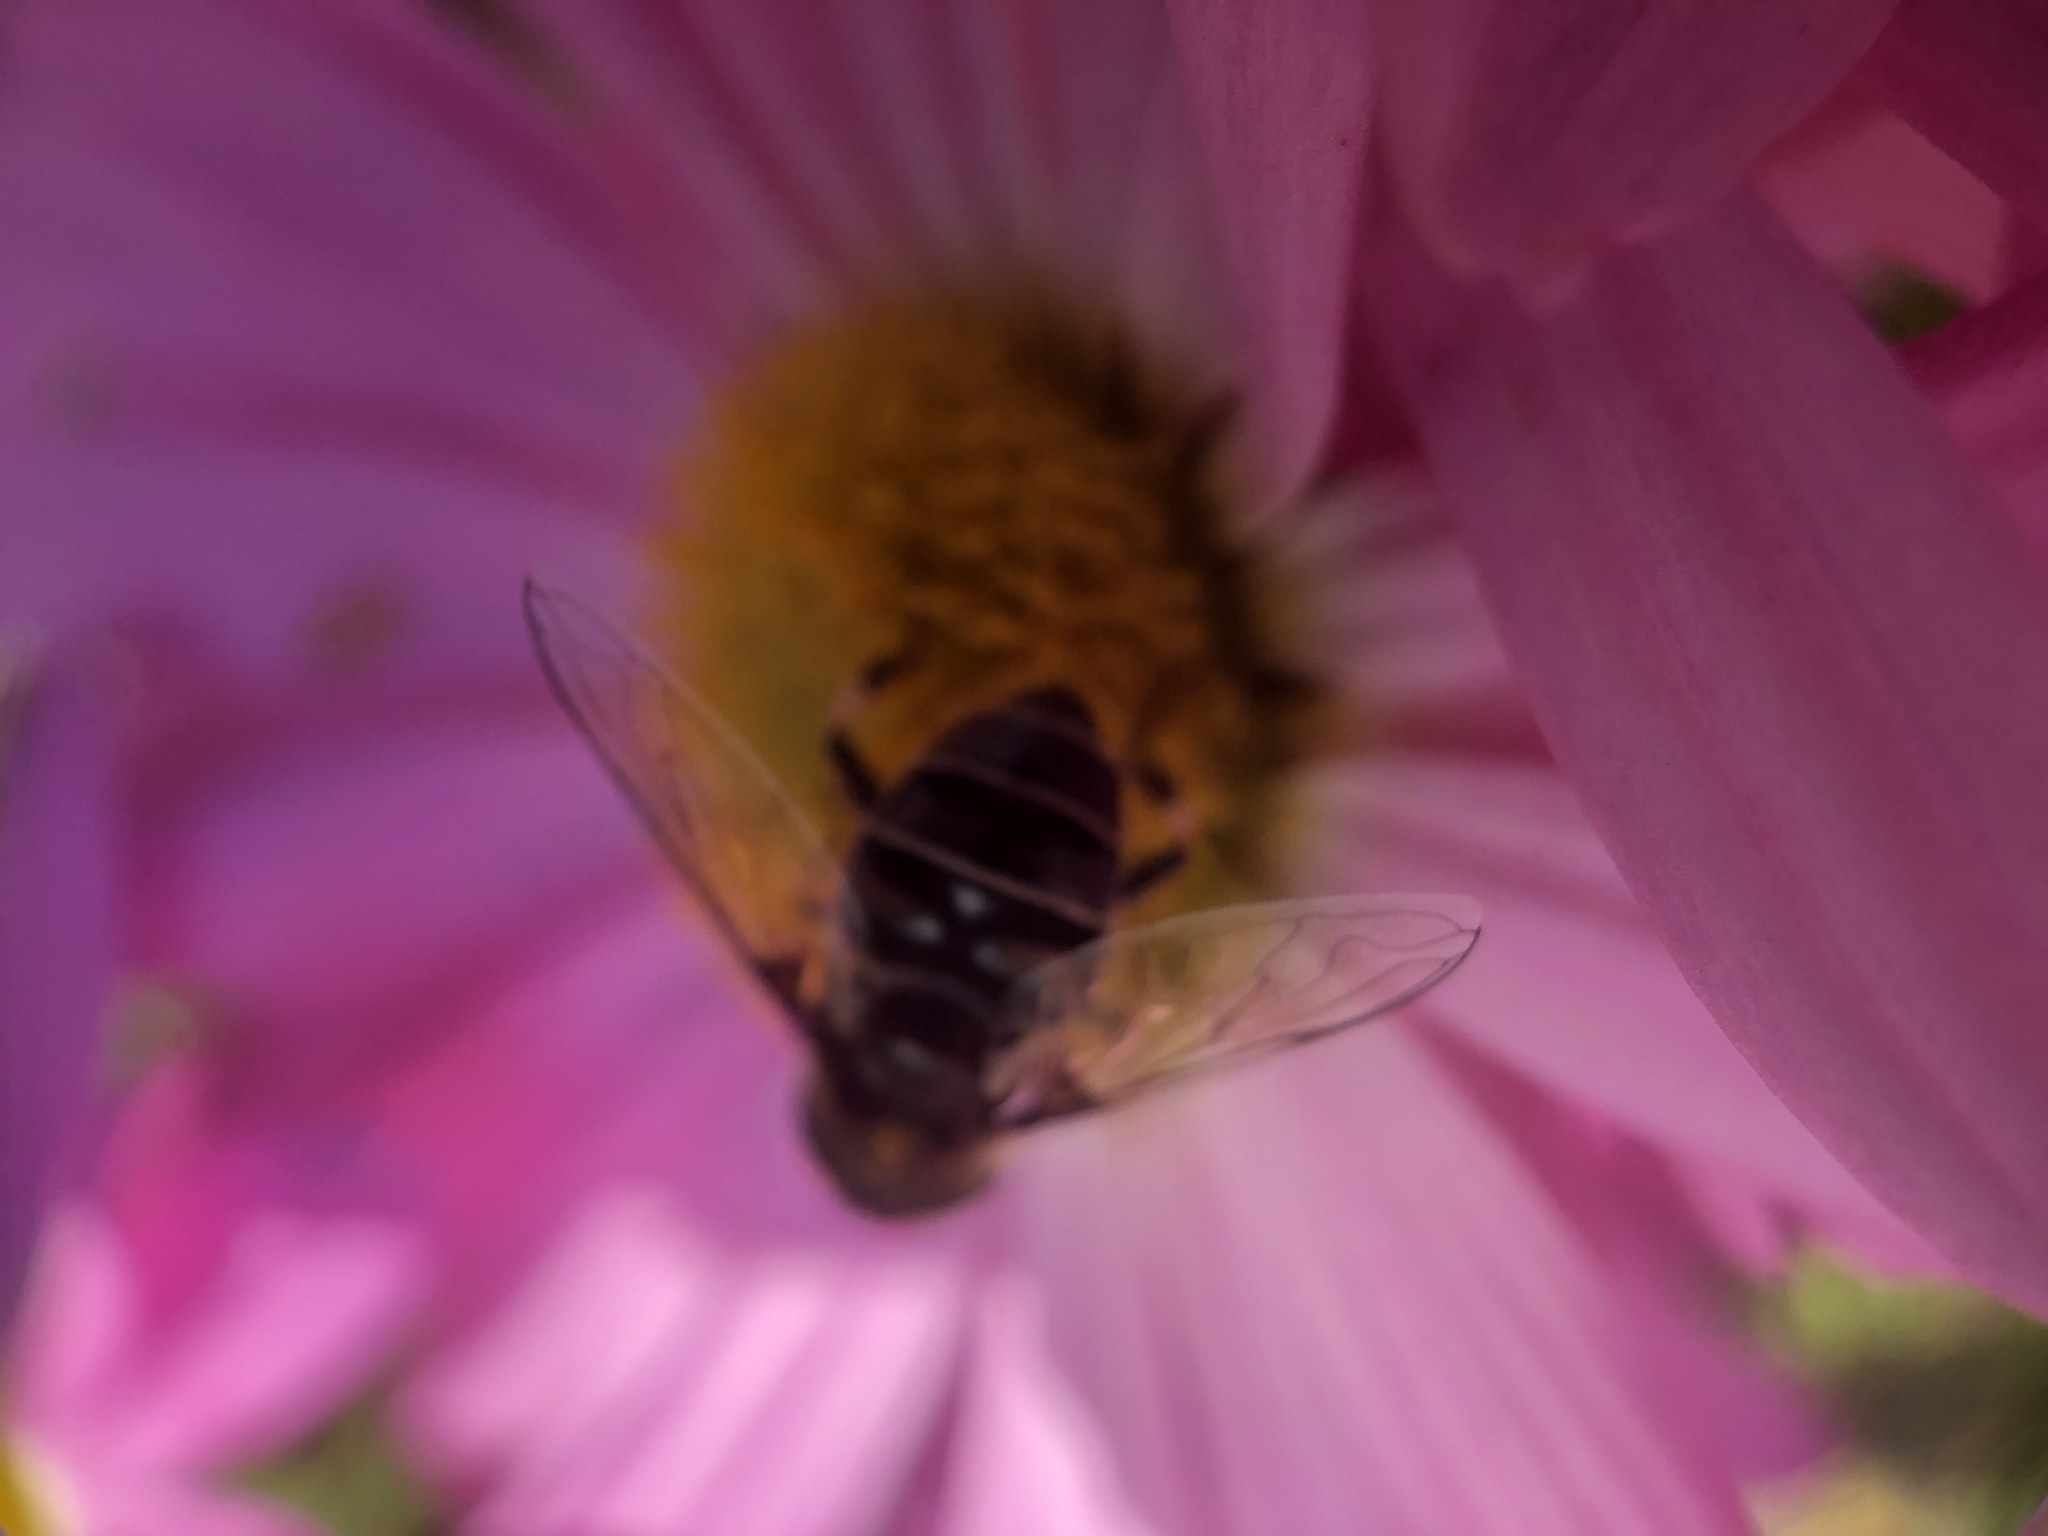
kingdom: Animalia
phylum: Arthropoda
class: Insecta
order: Diptera
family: Syrphidae
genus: Eristalis
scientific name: Eristalis dimidiata
